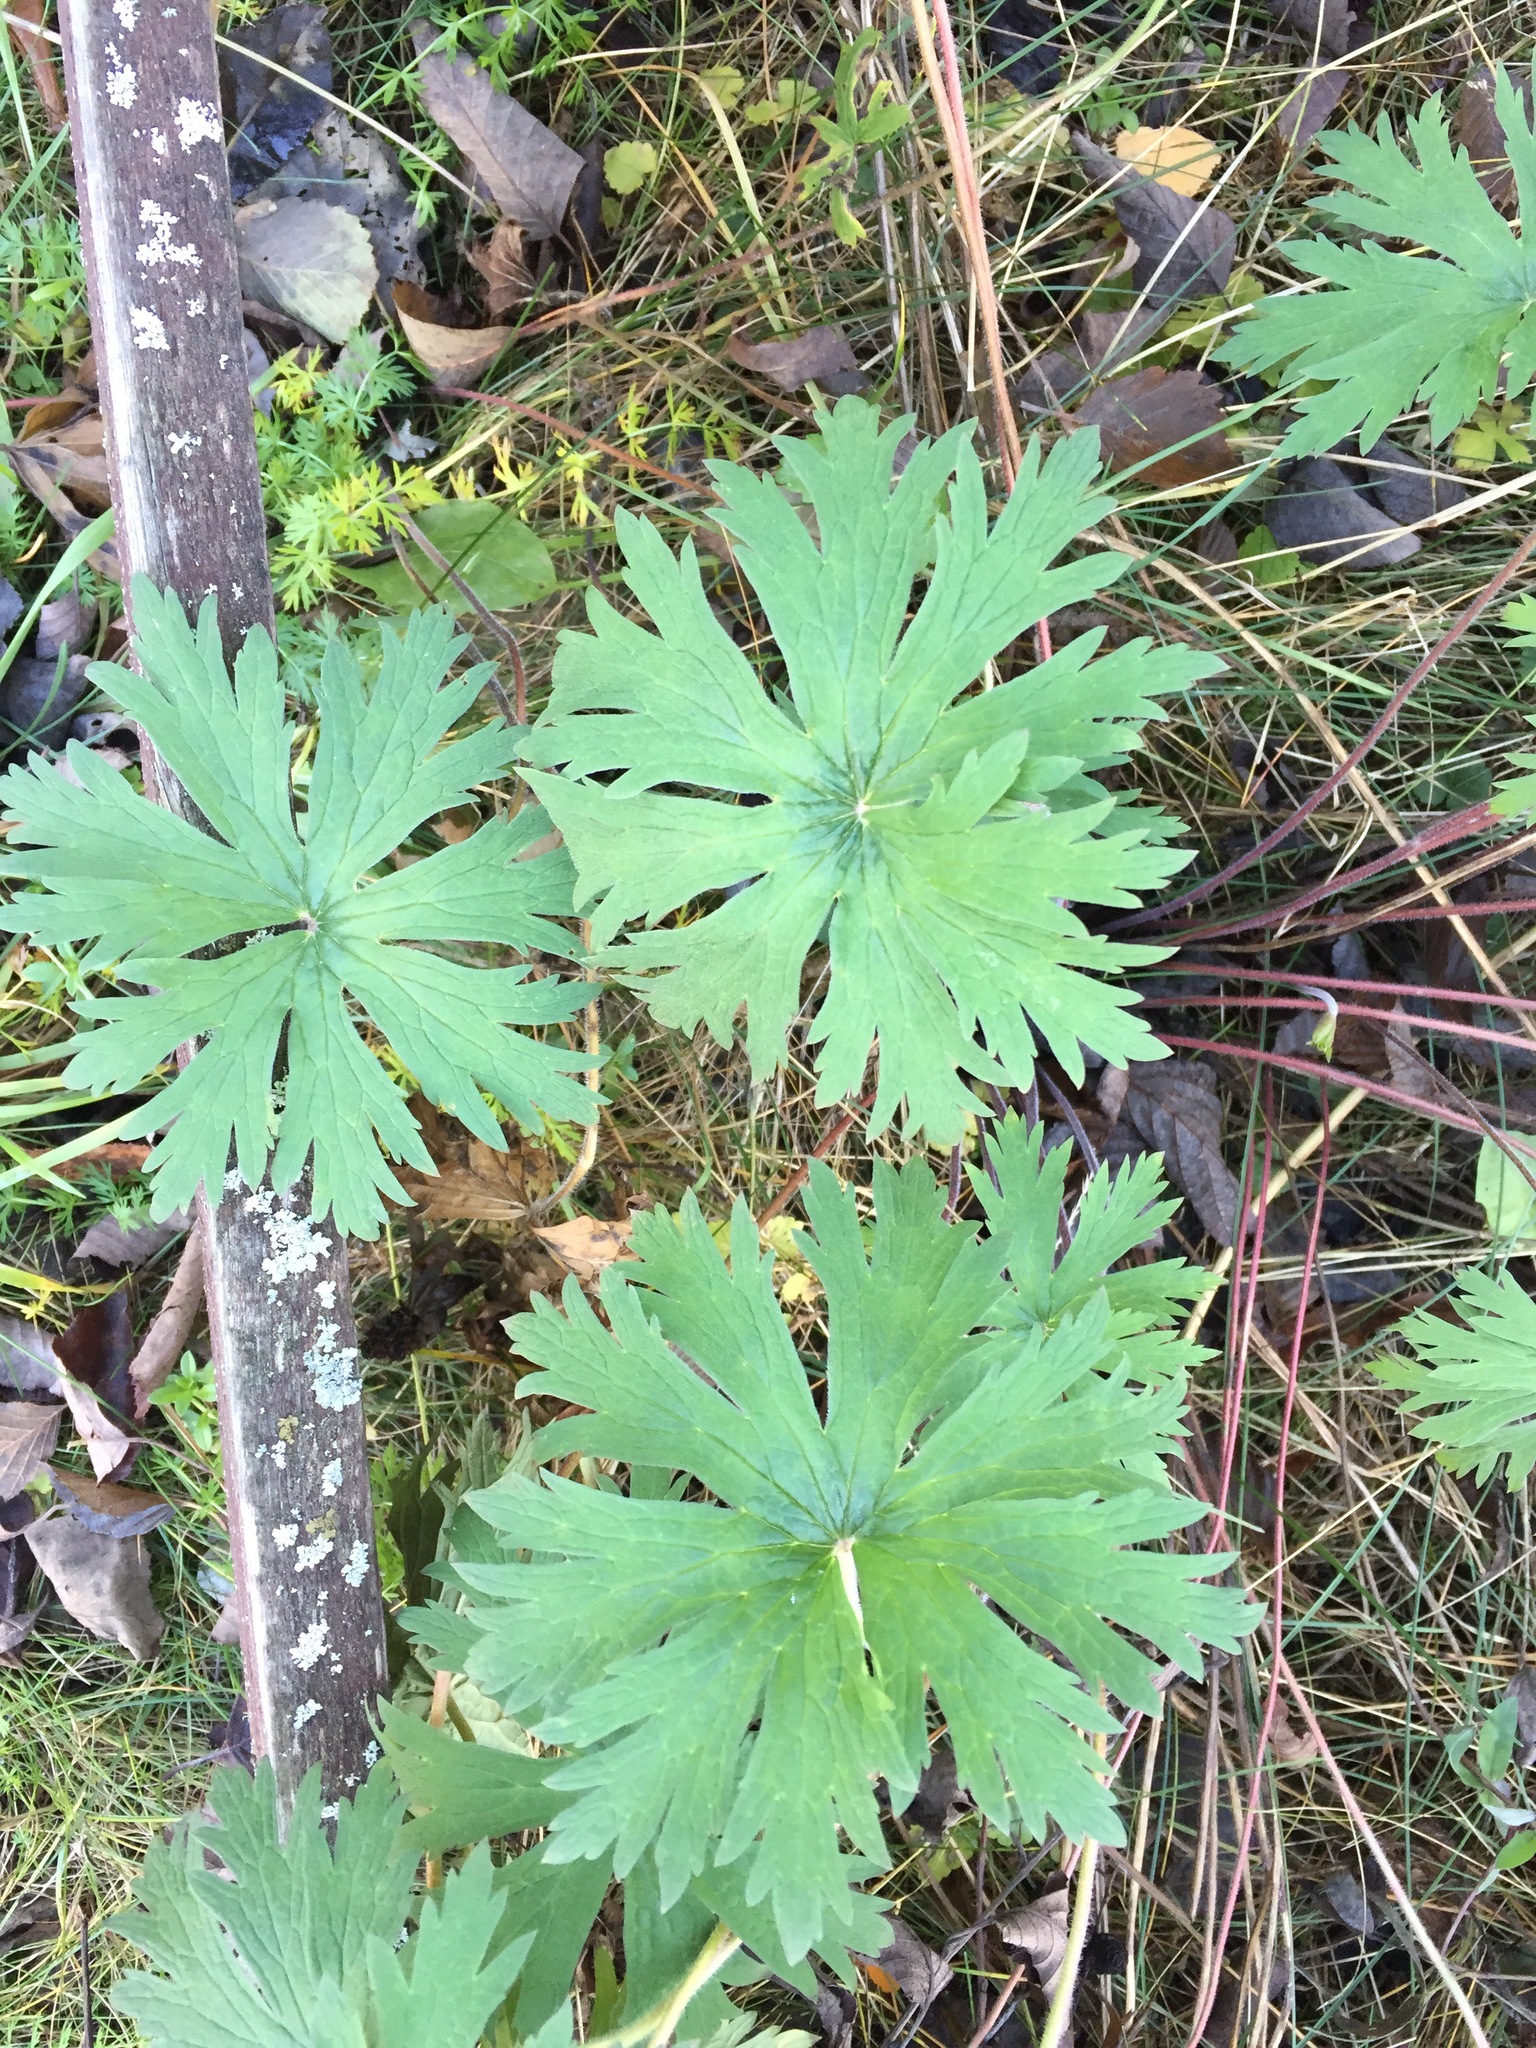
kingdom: Plantae
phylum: Tracheophyta
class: Magnoliopsida
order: Geraniales
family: Geraniaceae
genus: Geranium
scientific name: Geranium pratense
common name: Meadow crane's-bill
